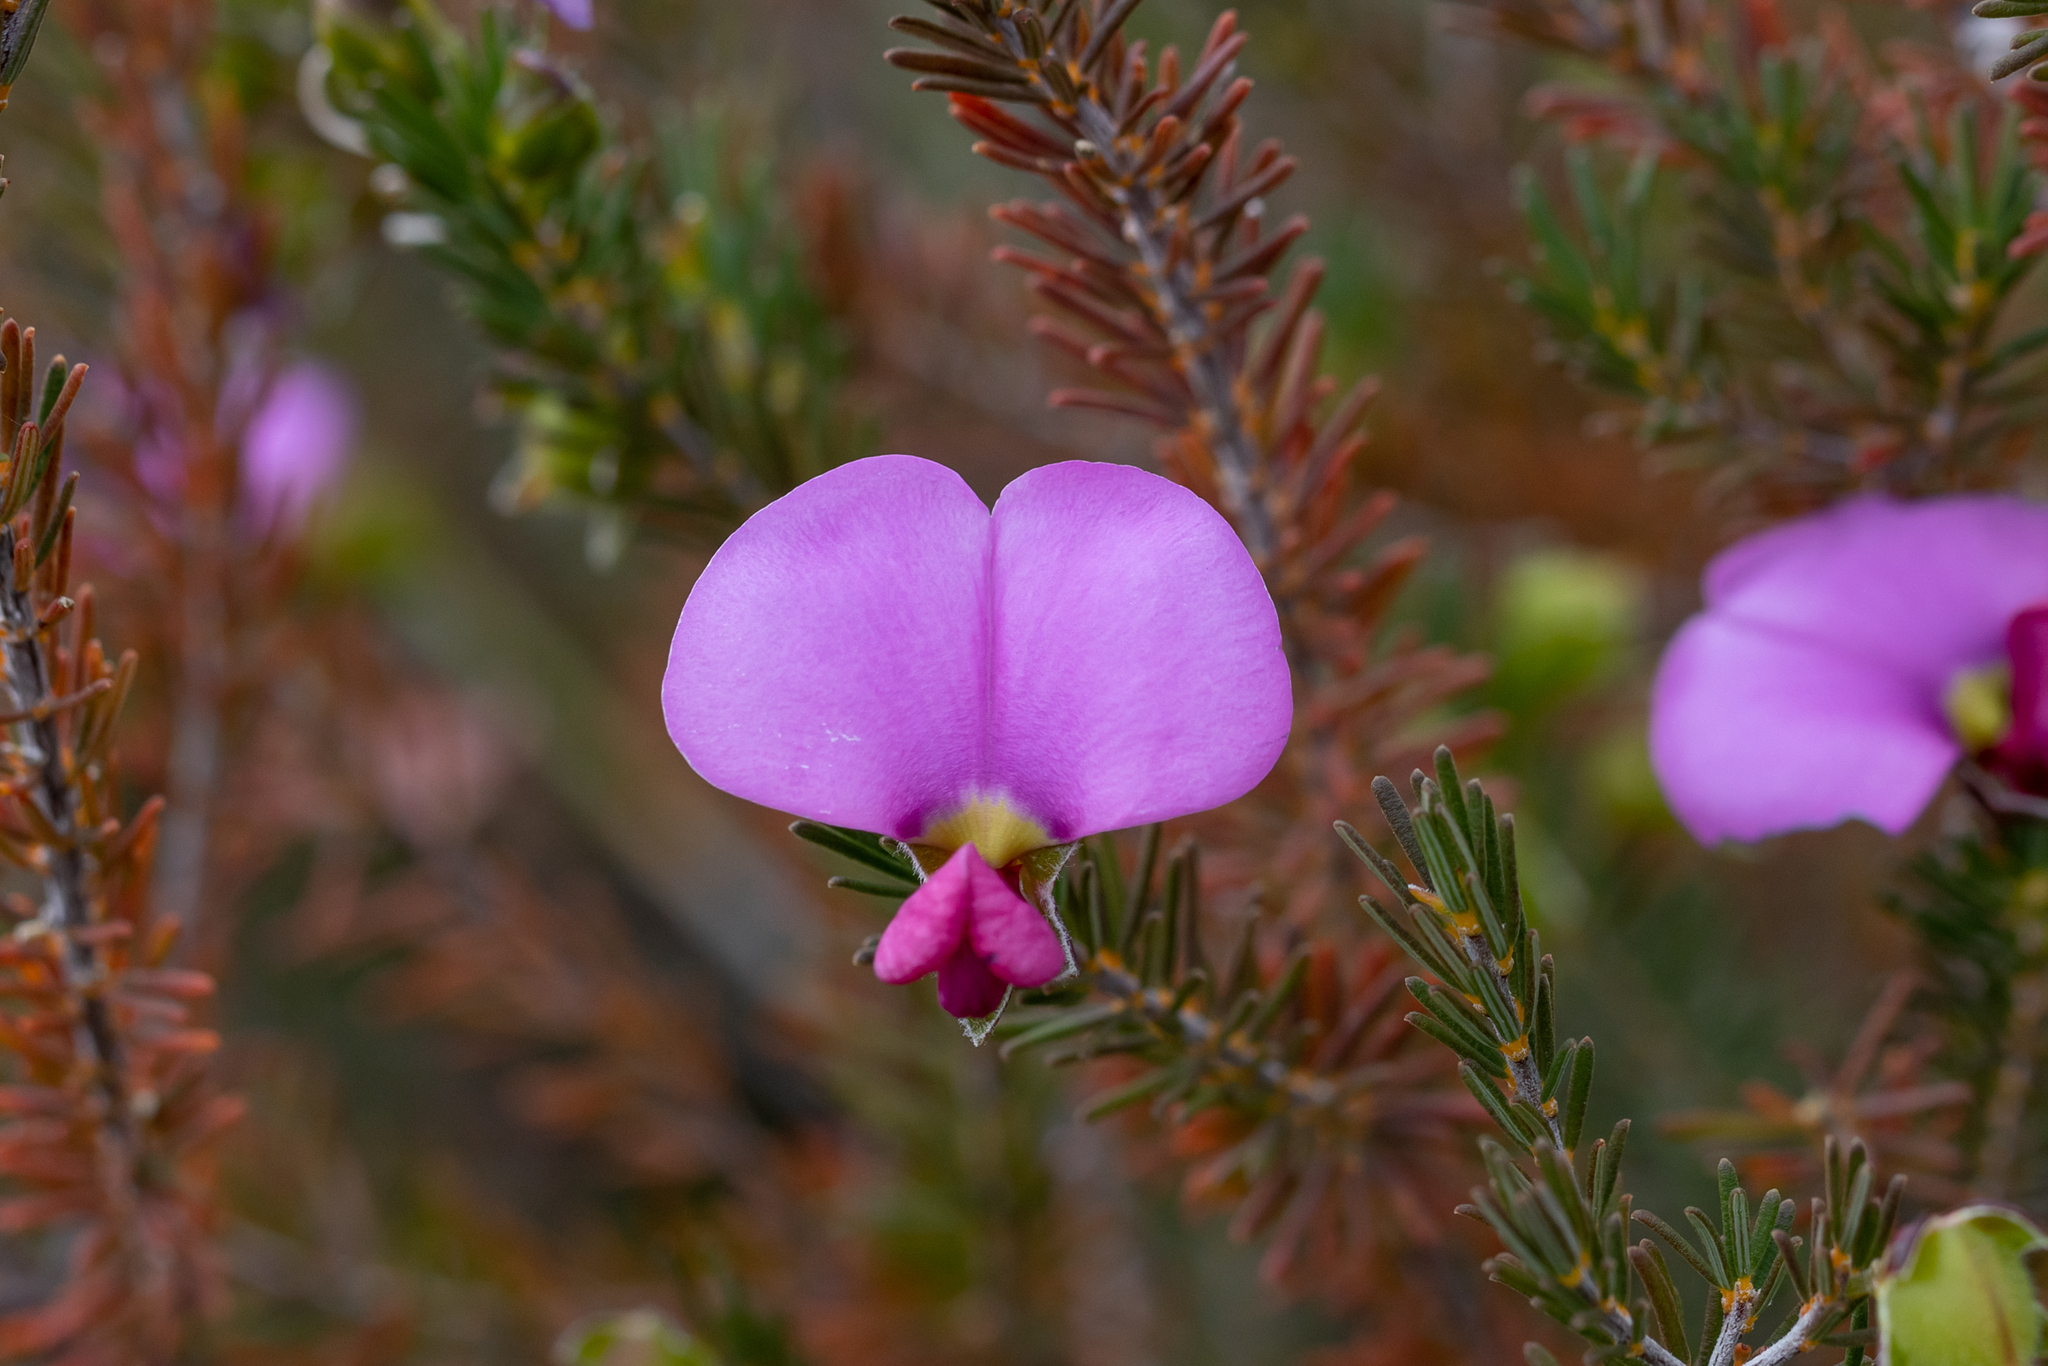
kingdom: Plantae
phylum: Tracheophyta
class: Magnoliopsida
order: Fabales
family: Fabaceae
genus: Gompholobium
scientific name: Gompholobium scabrum
